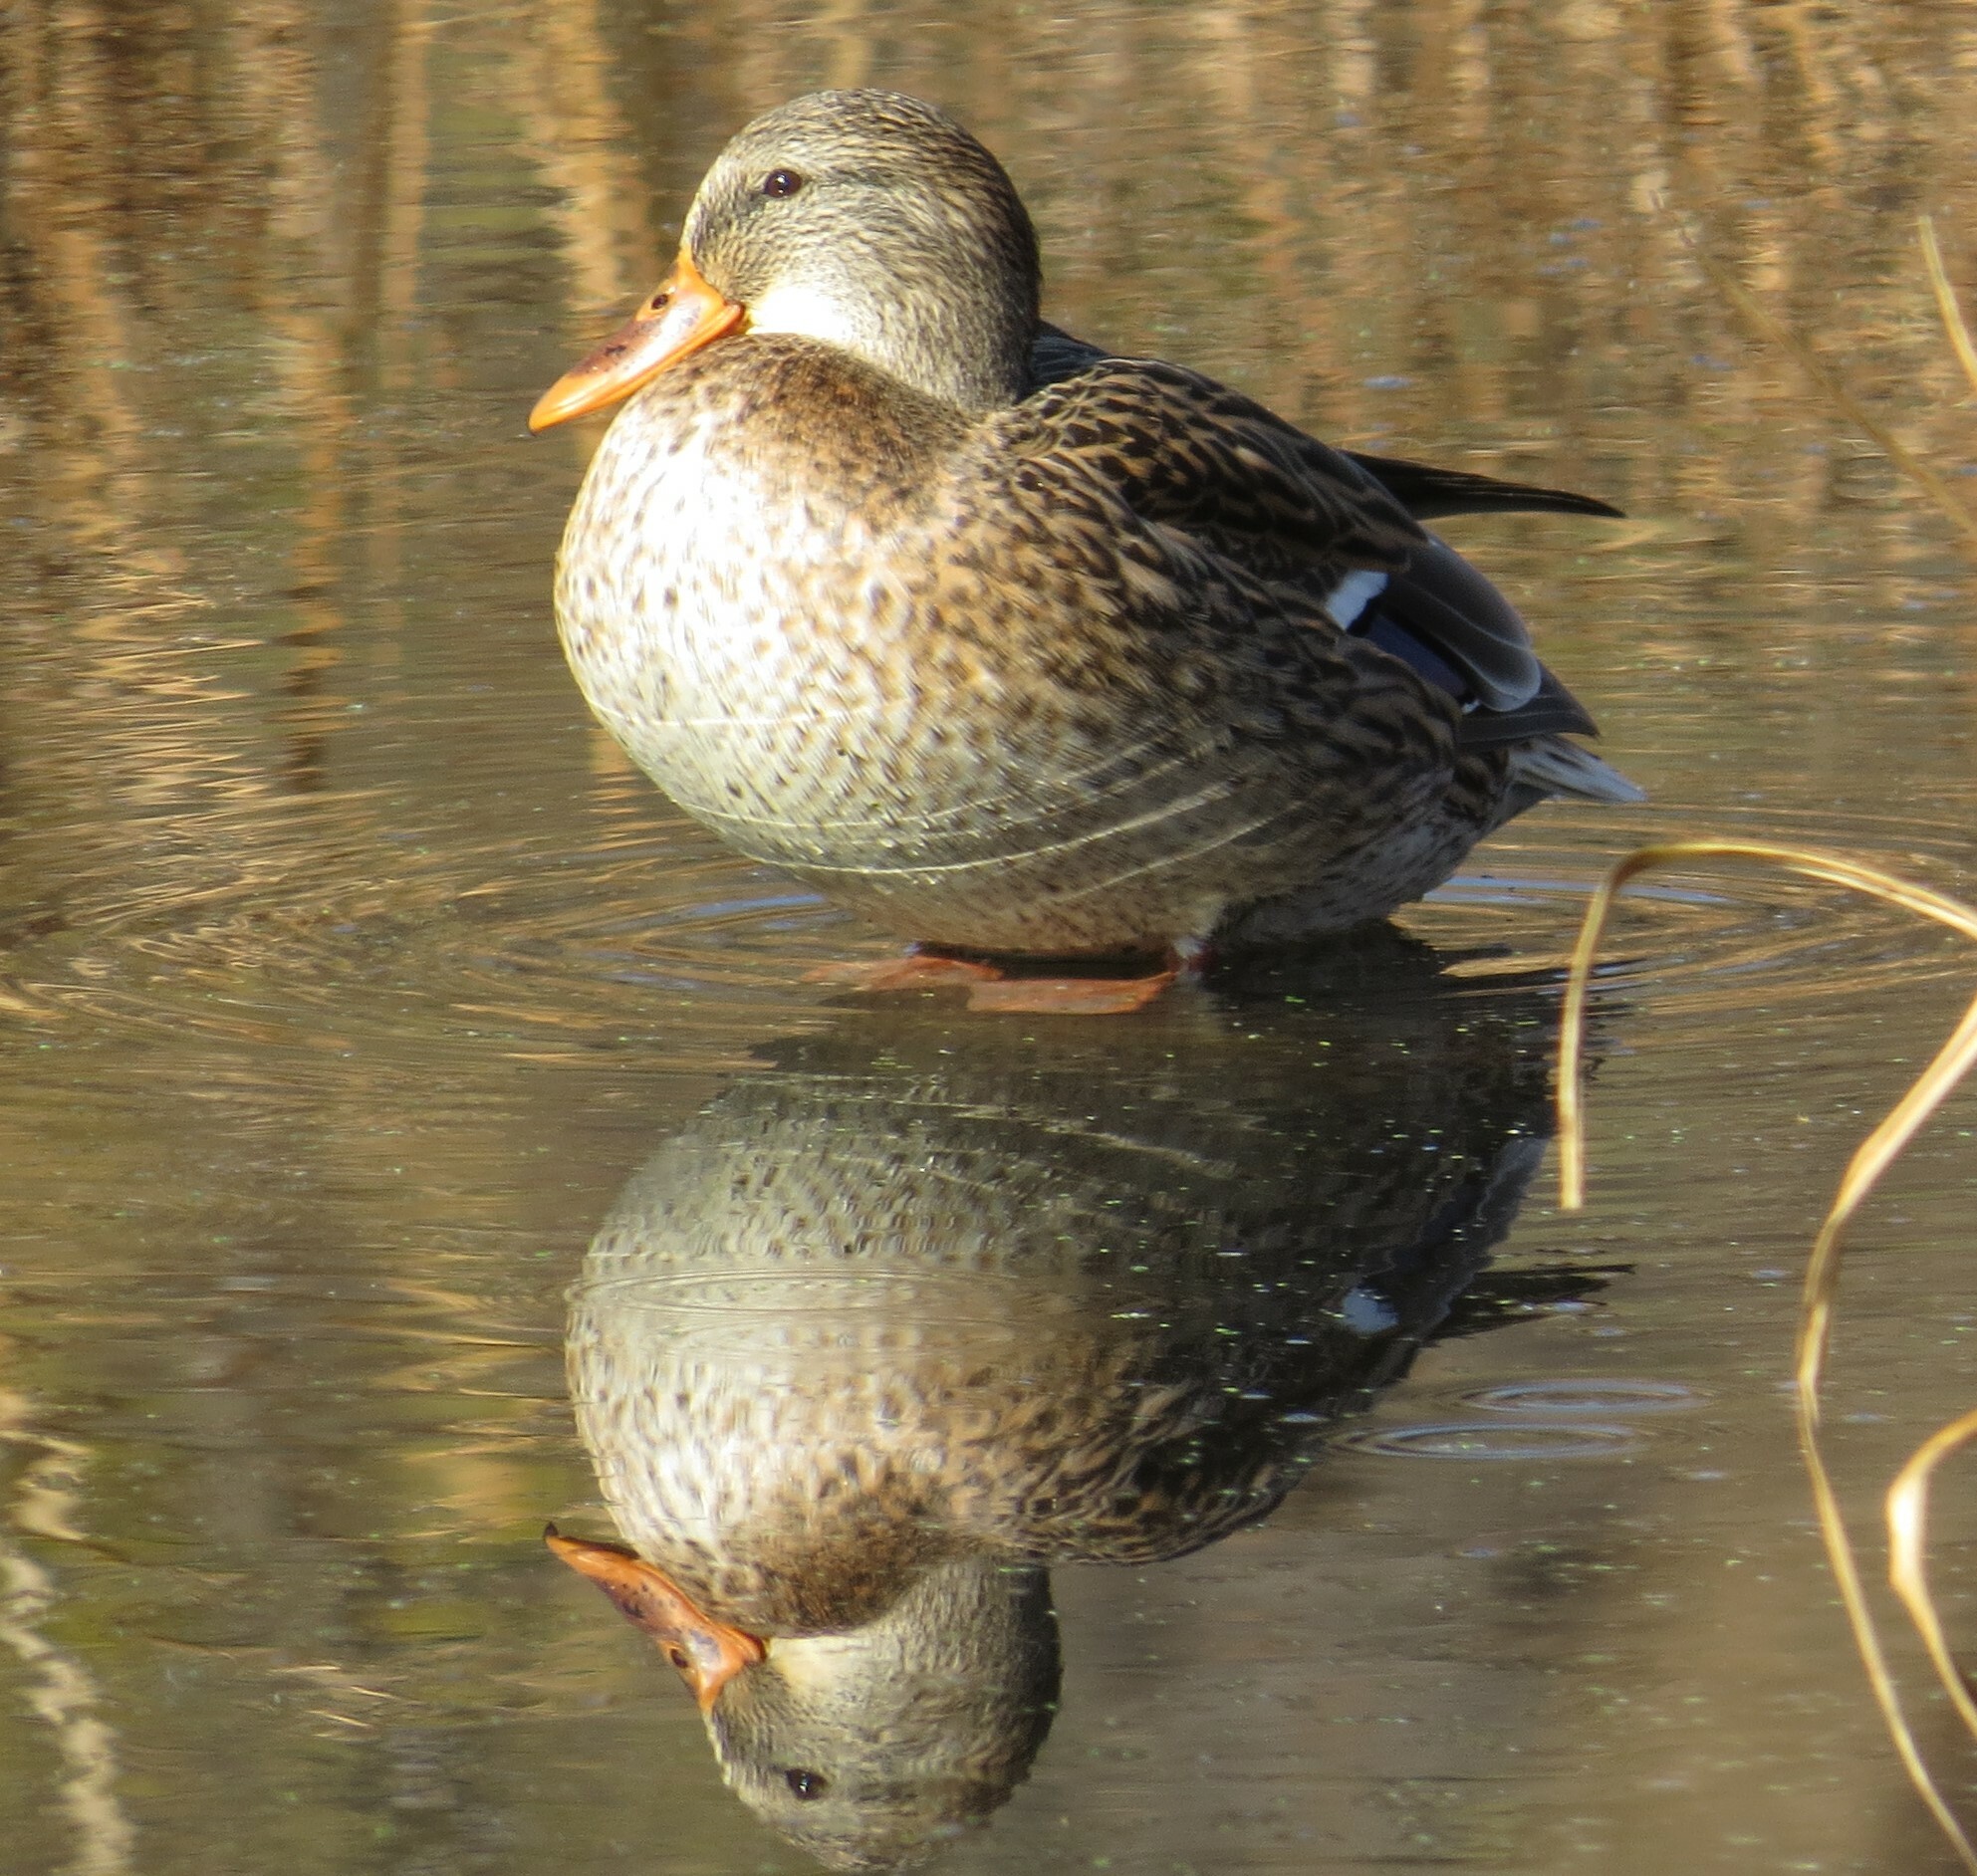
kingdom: Animalia
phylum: Chordata
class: Aves
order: Anseriformes
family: Anatidae
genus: Anas
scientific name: Anas platyrhynchos
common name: Mallard
